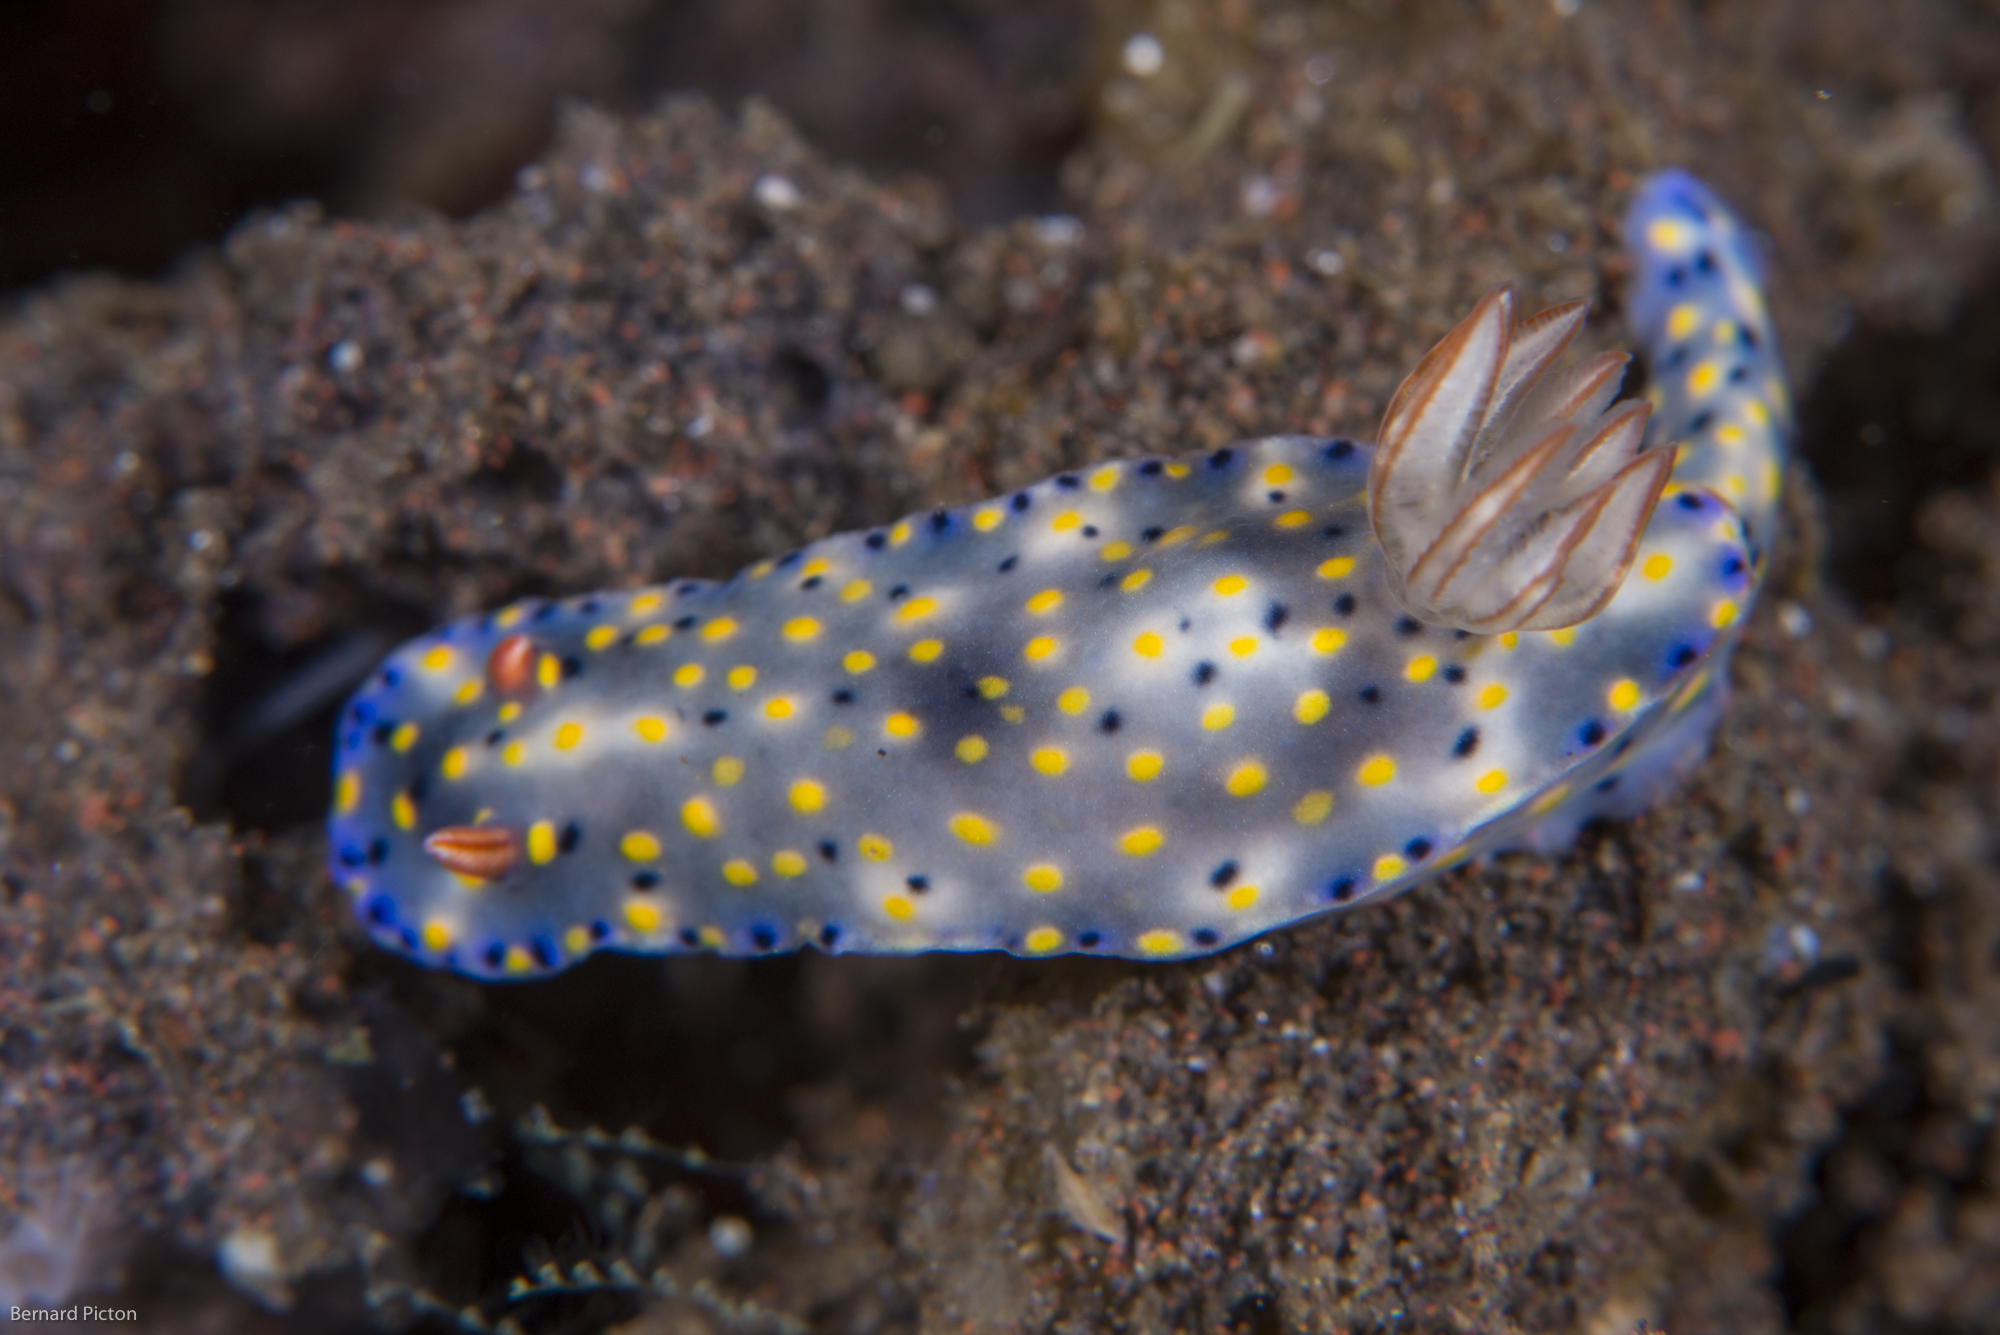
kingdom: Animalia
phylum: Mollusca
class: Gastropoda
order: Nudibranchia
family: Chromodorididae
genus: Hypselodoris
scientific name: Hypselodoris roo
